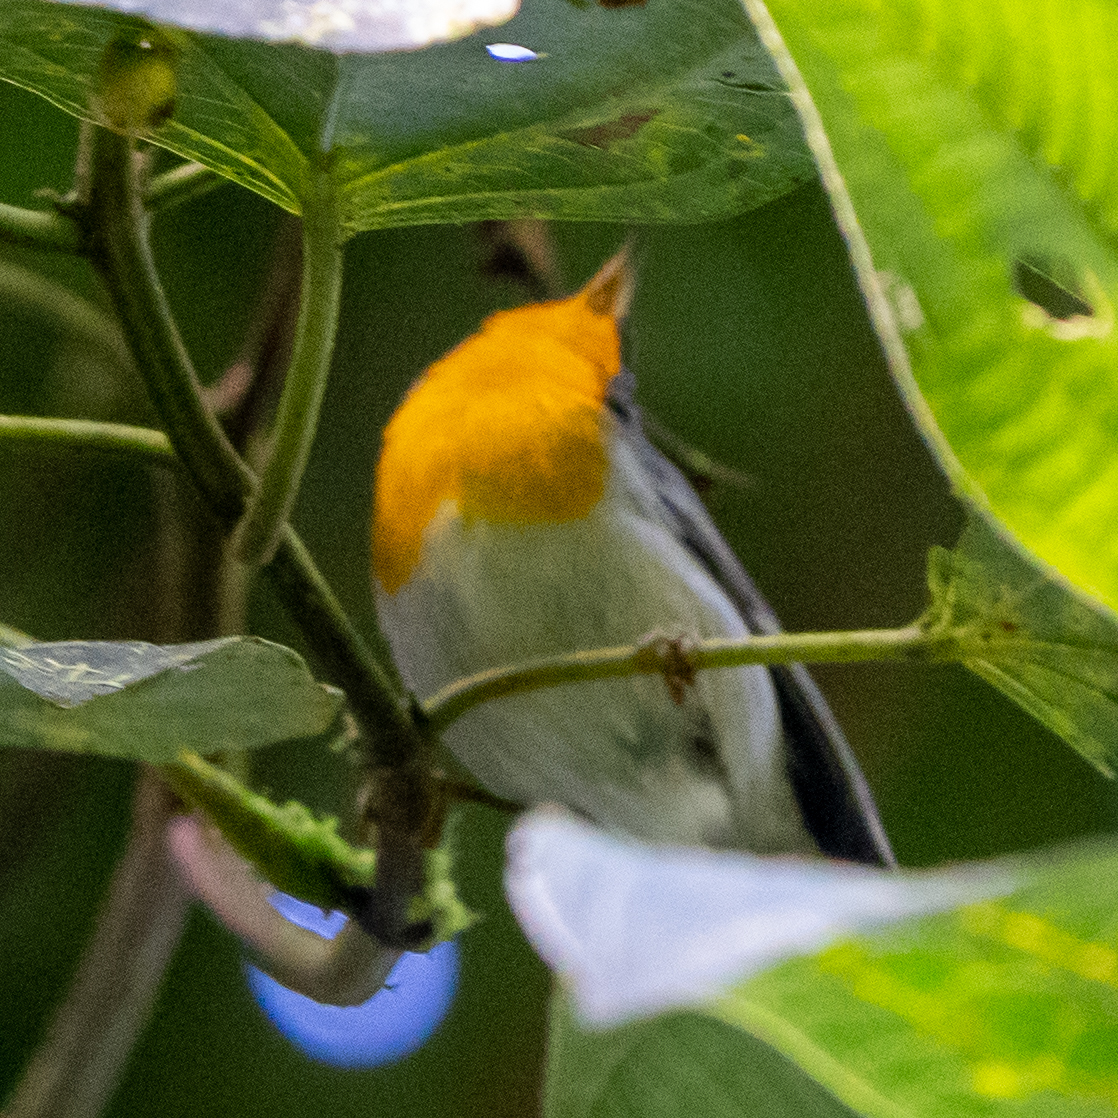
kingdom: Animalia
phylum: Chordata
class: Aves
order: Passeriformes
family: Parulidae
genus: Oreothlypis
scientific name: Oreothlypis gutturalis
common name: Flame-throated warbler
